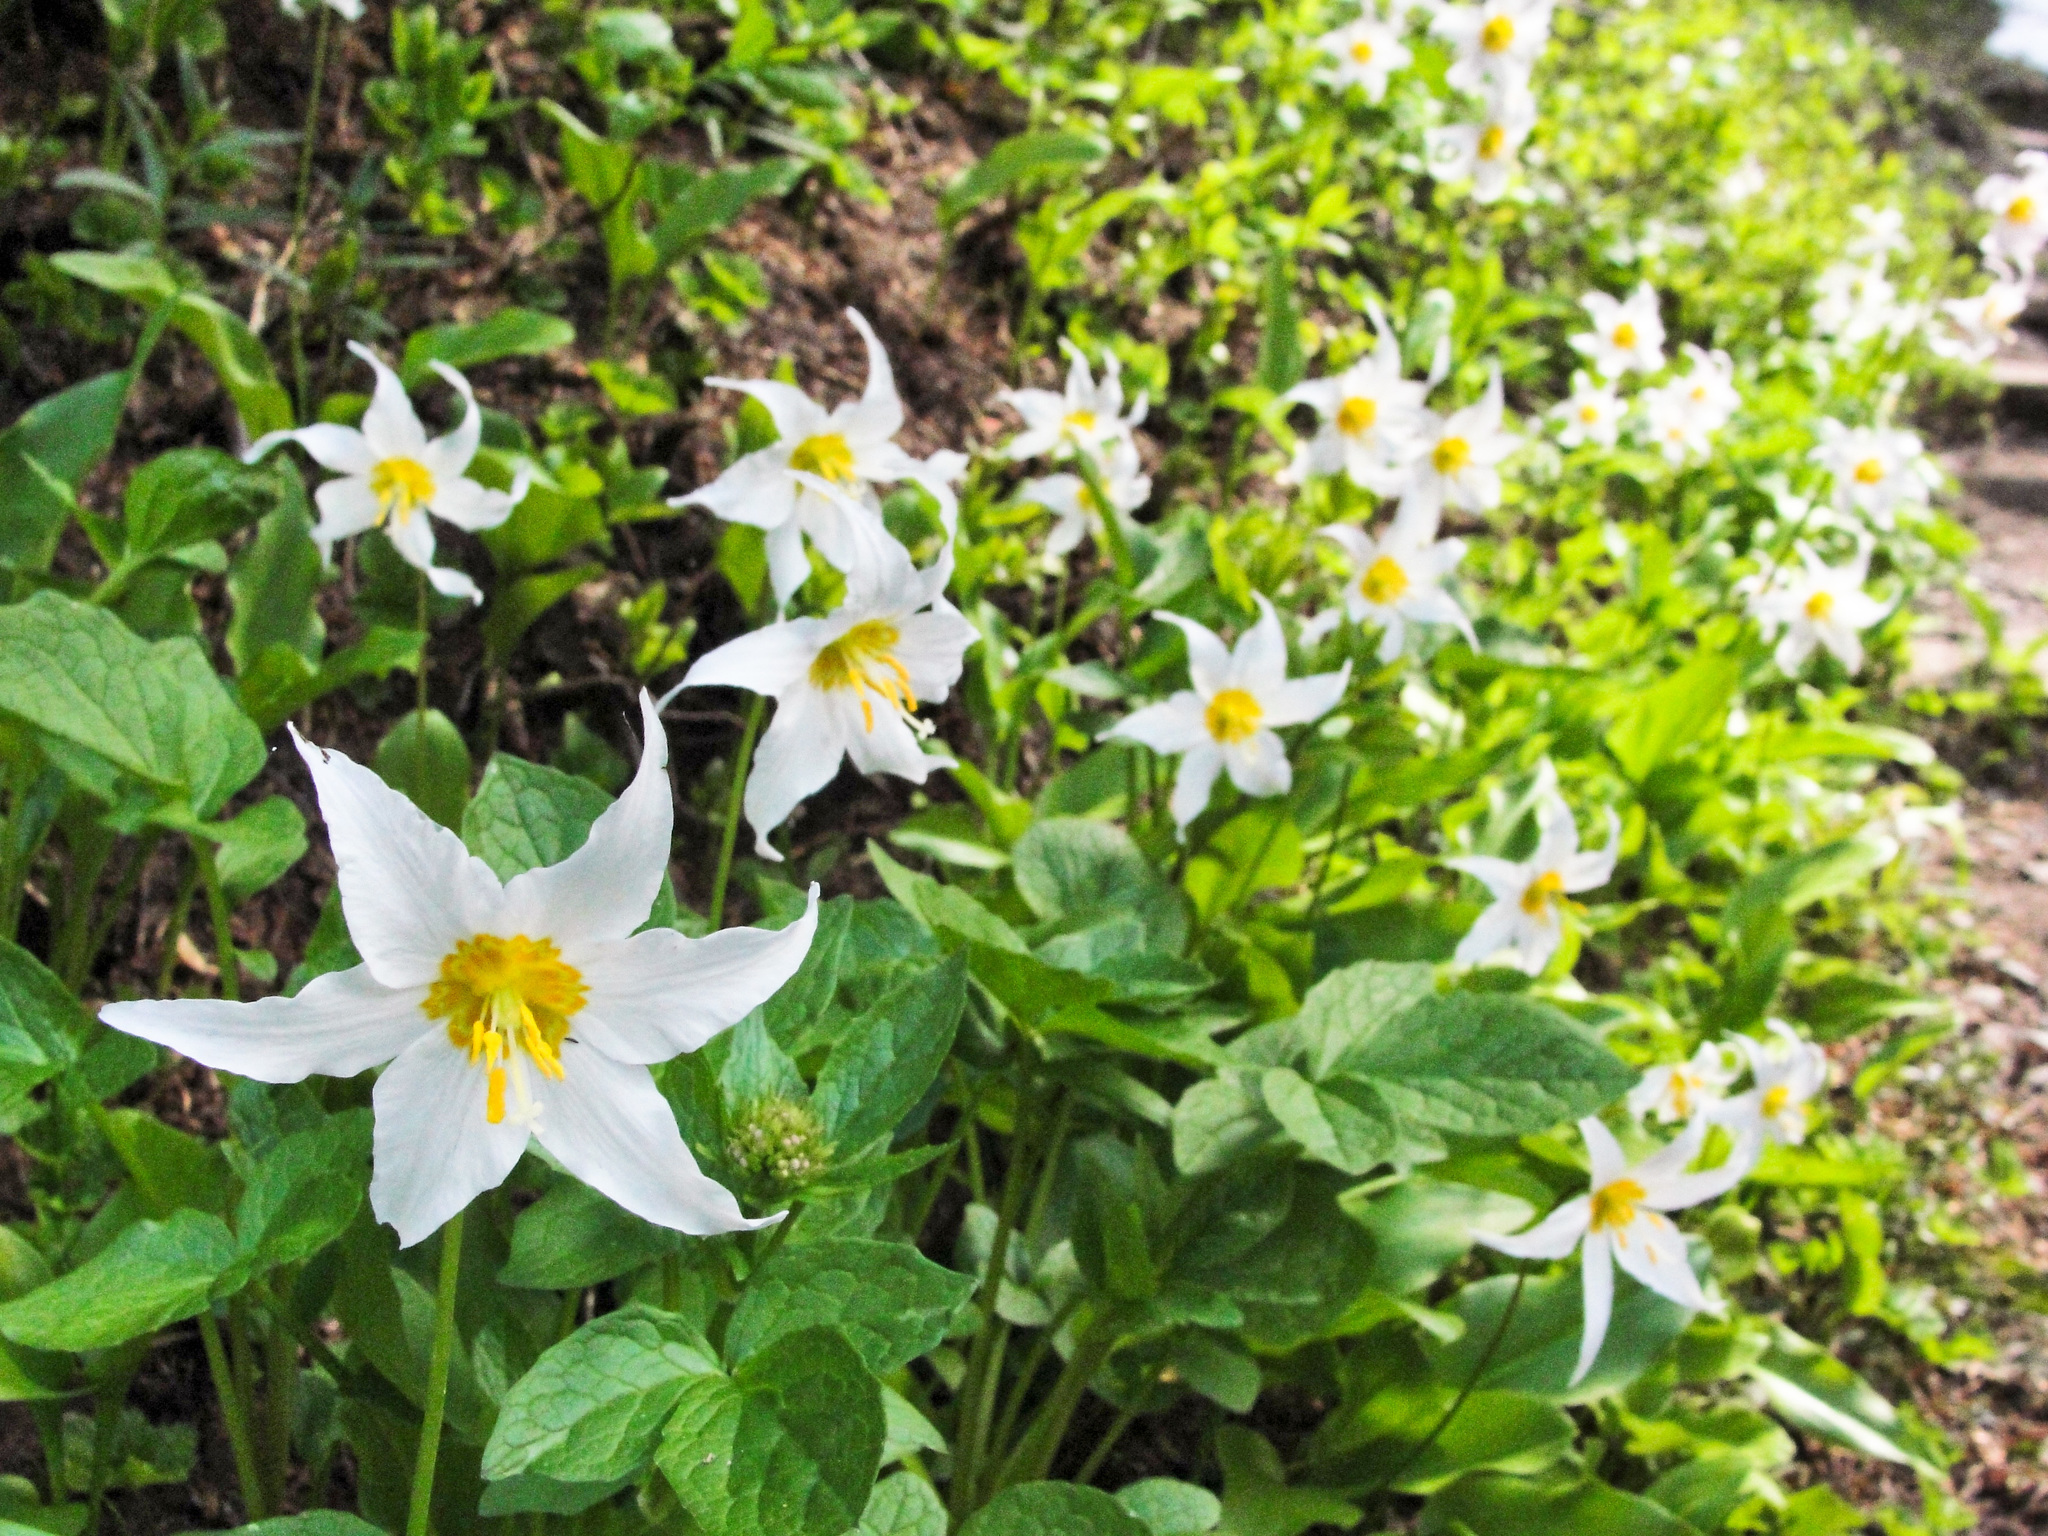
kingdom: Plantae
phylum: Tracheophyta
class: Liliopsida
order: Liliales
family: Liliaceae
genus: Erythronium
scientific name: Erythronium montanum
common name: Avalanche lily
